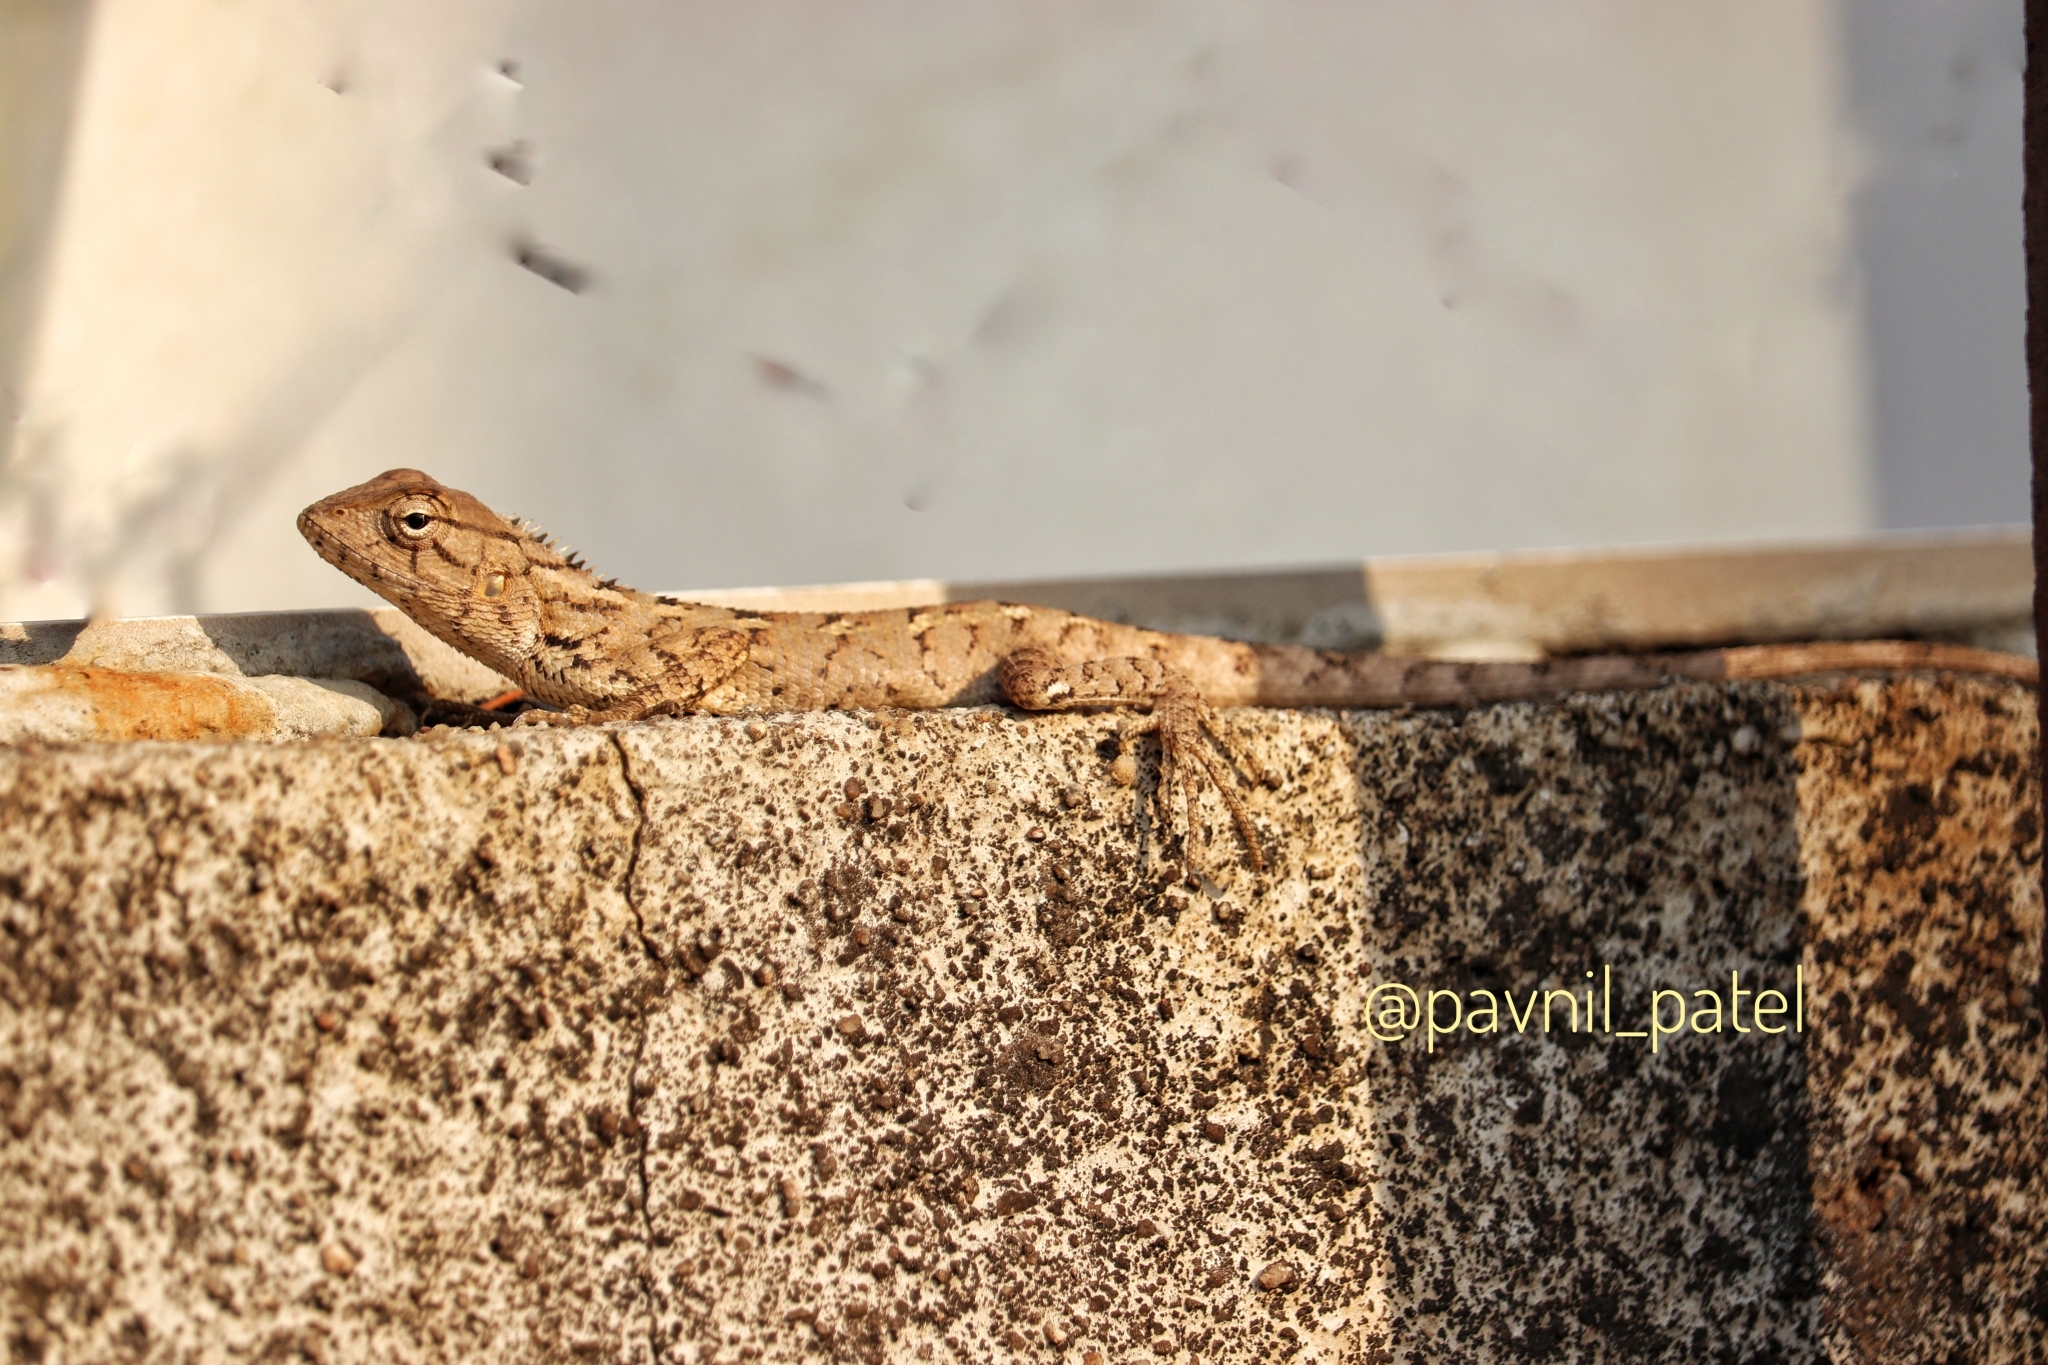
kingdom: Animalia
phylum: Chordata
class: Squamata
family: Agamidae
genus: Calotes
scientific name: Calotes versicolor
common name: Oriental garden lizard
